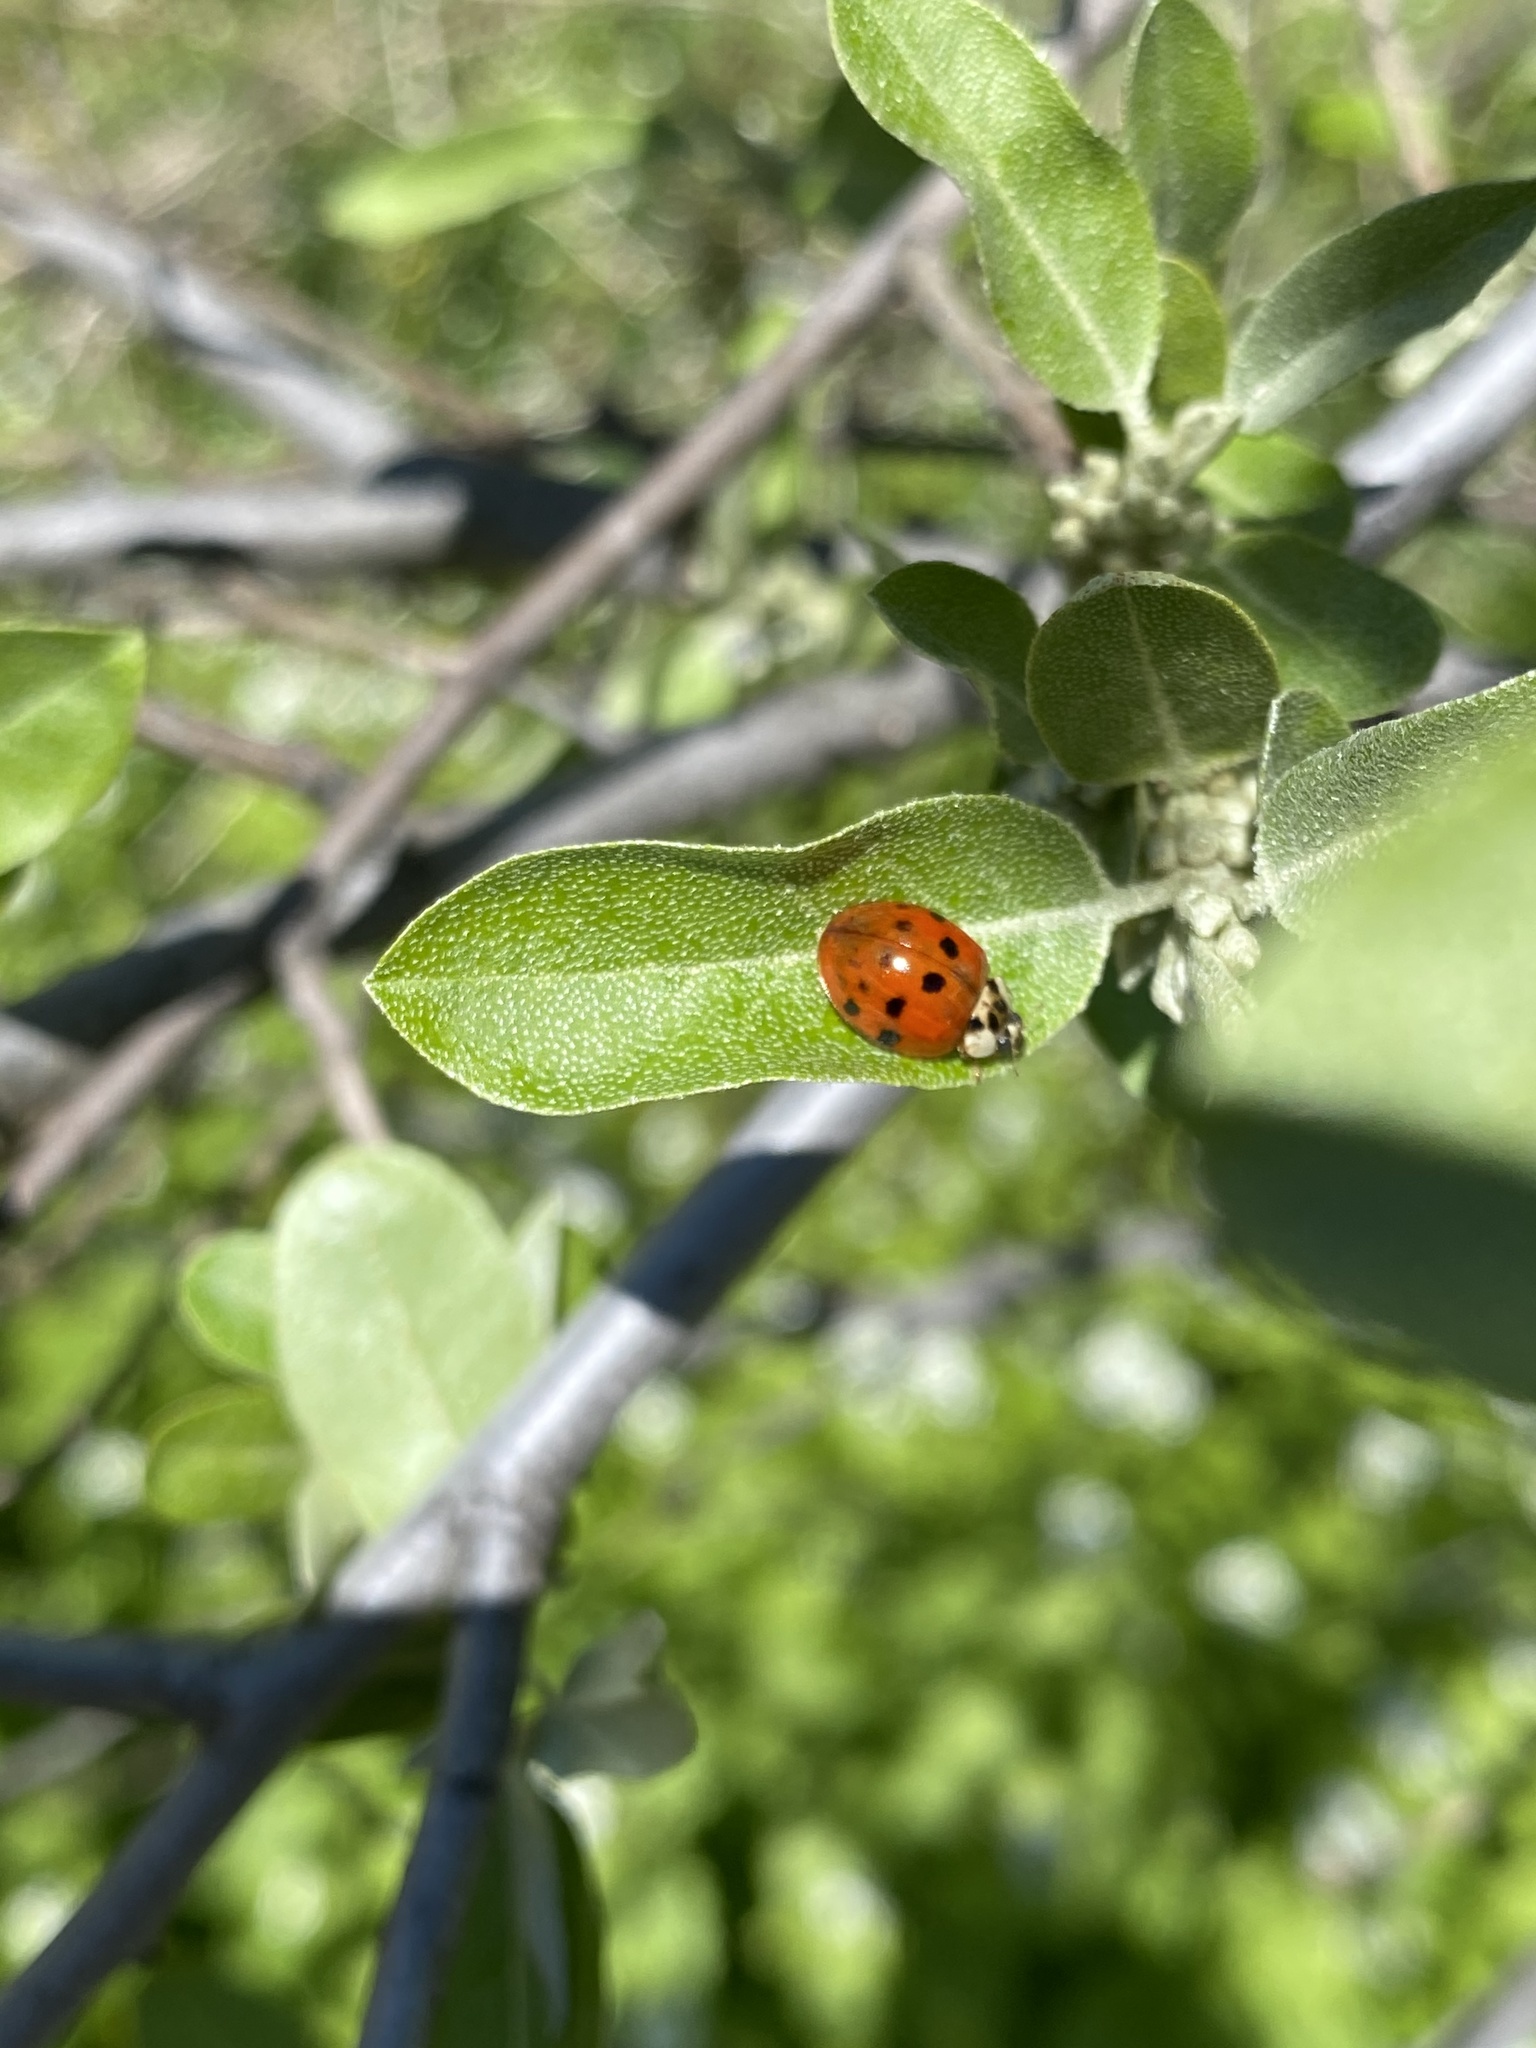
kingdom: Animalia
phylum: Arthropoda
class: Insecta
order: Coleoptera
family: Coccinellidae
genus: Harmonia
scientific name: Harmonia axyridis
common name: Harlequin ladybird
